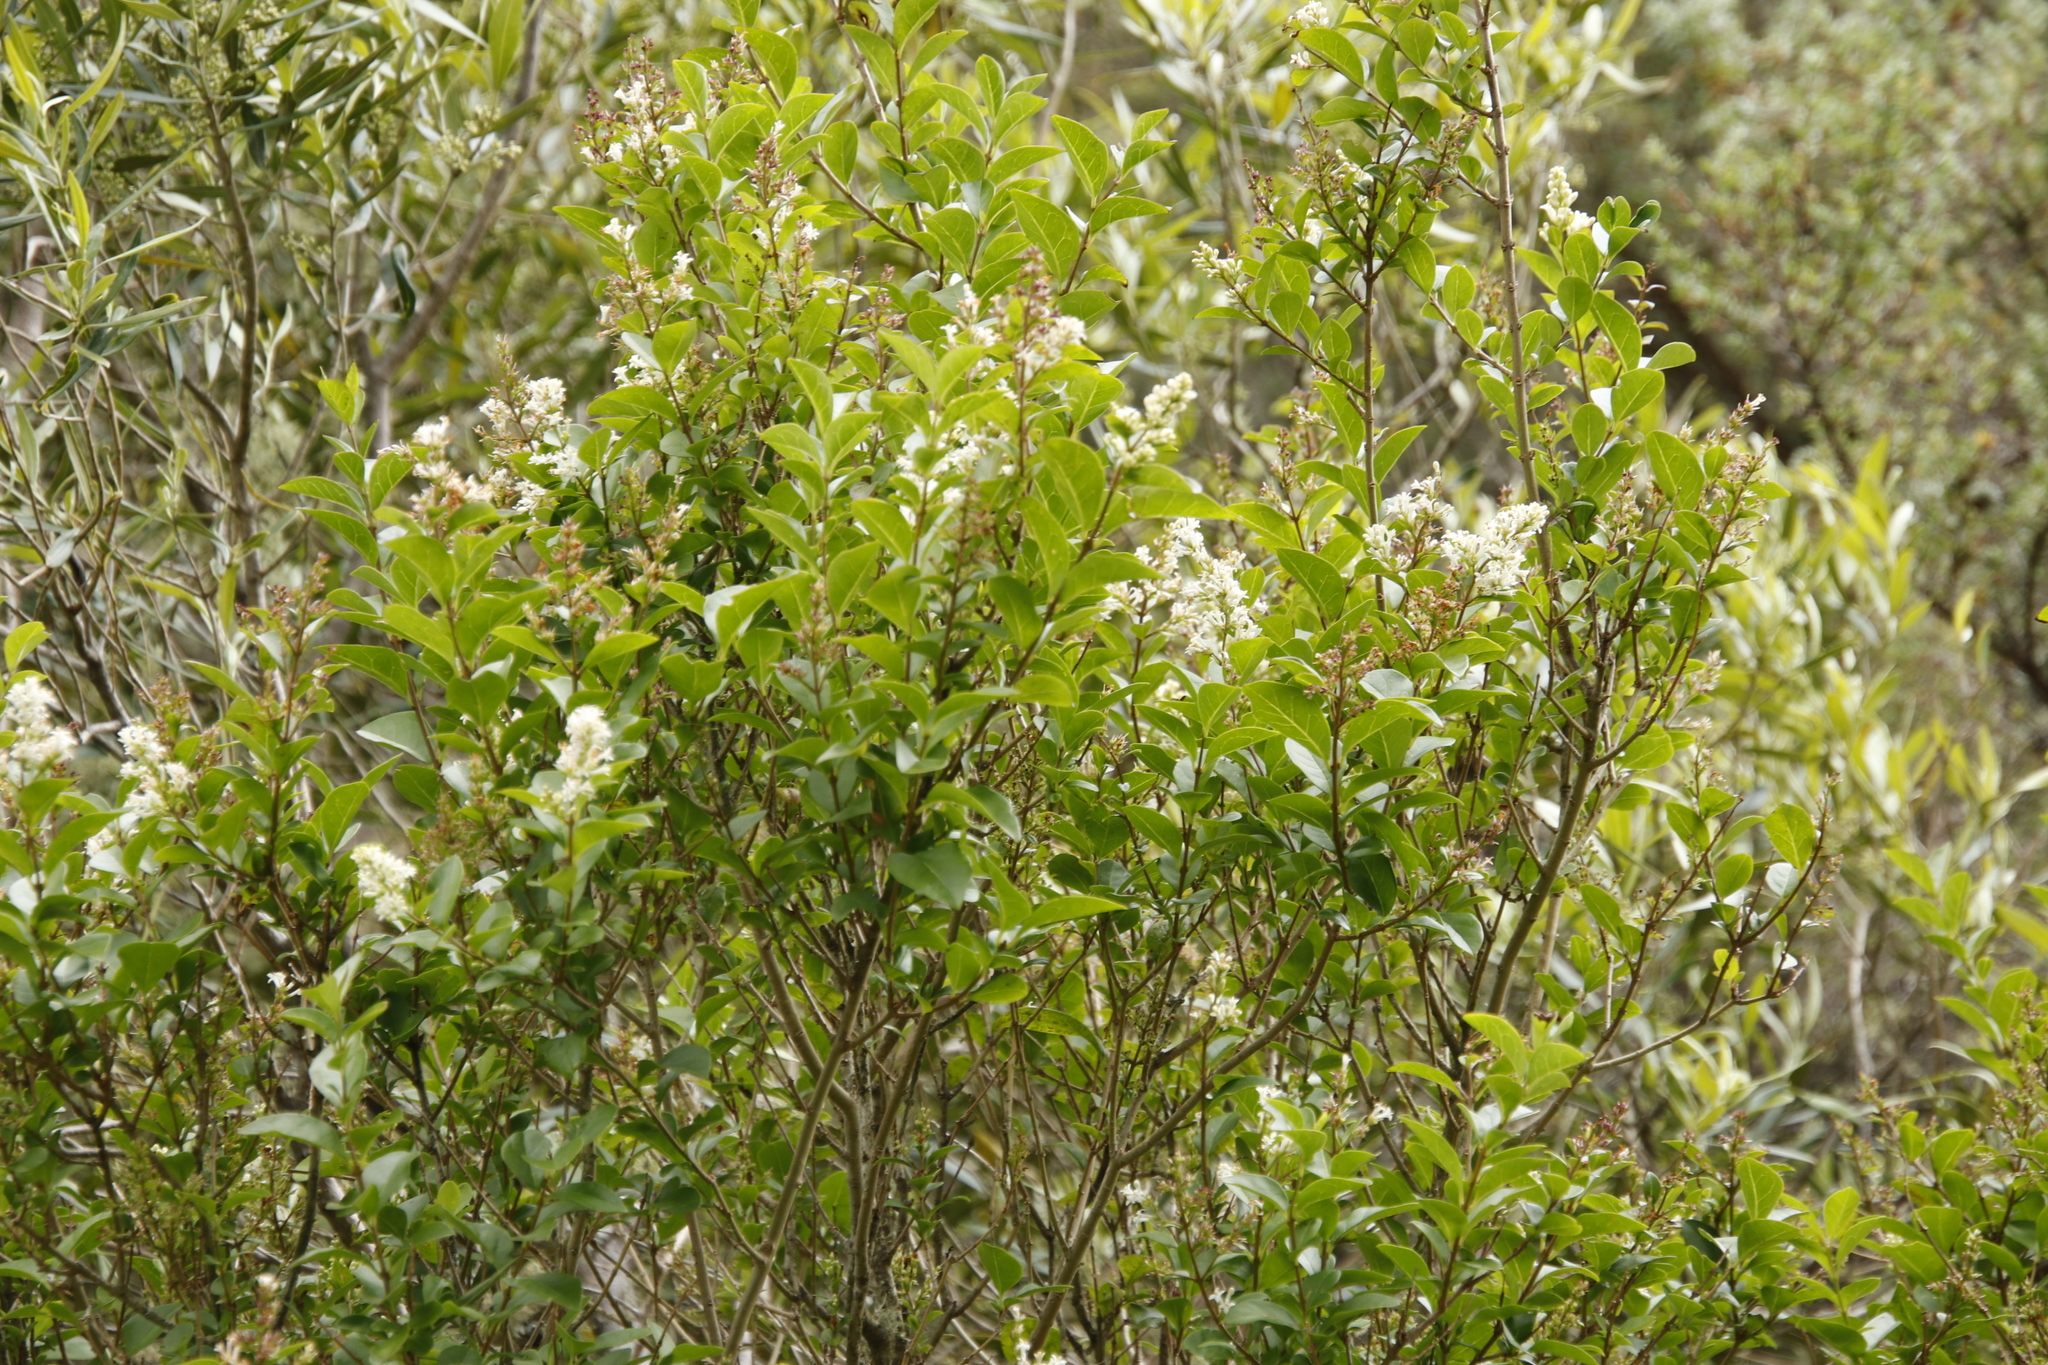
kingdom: Plantae
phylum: Tracheophyta
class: Magnoliopsida
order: Lamiales
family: Oleaceae
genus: Ligustrum
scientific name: Ligustrum ovalifolium
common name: California privet
